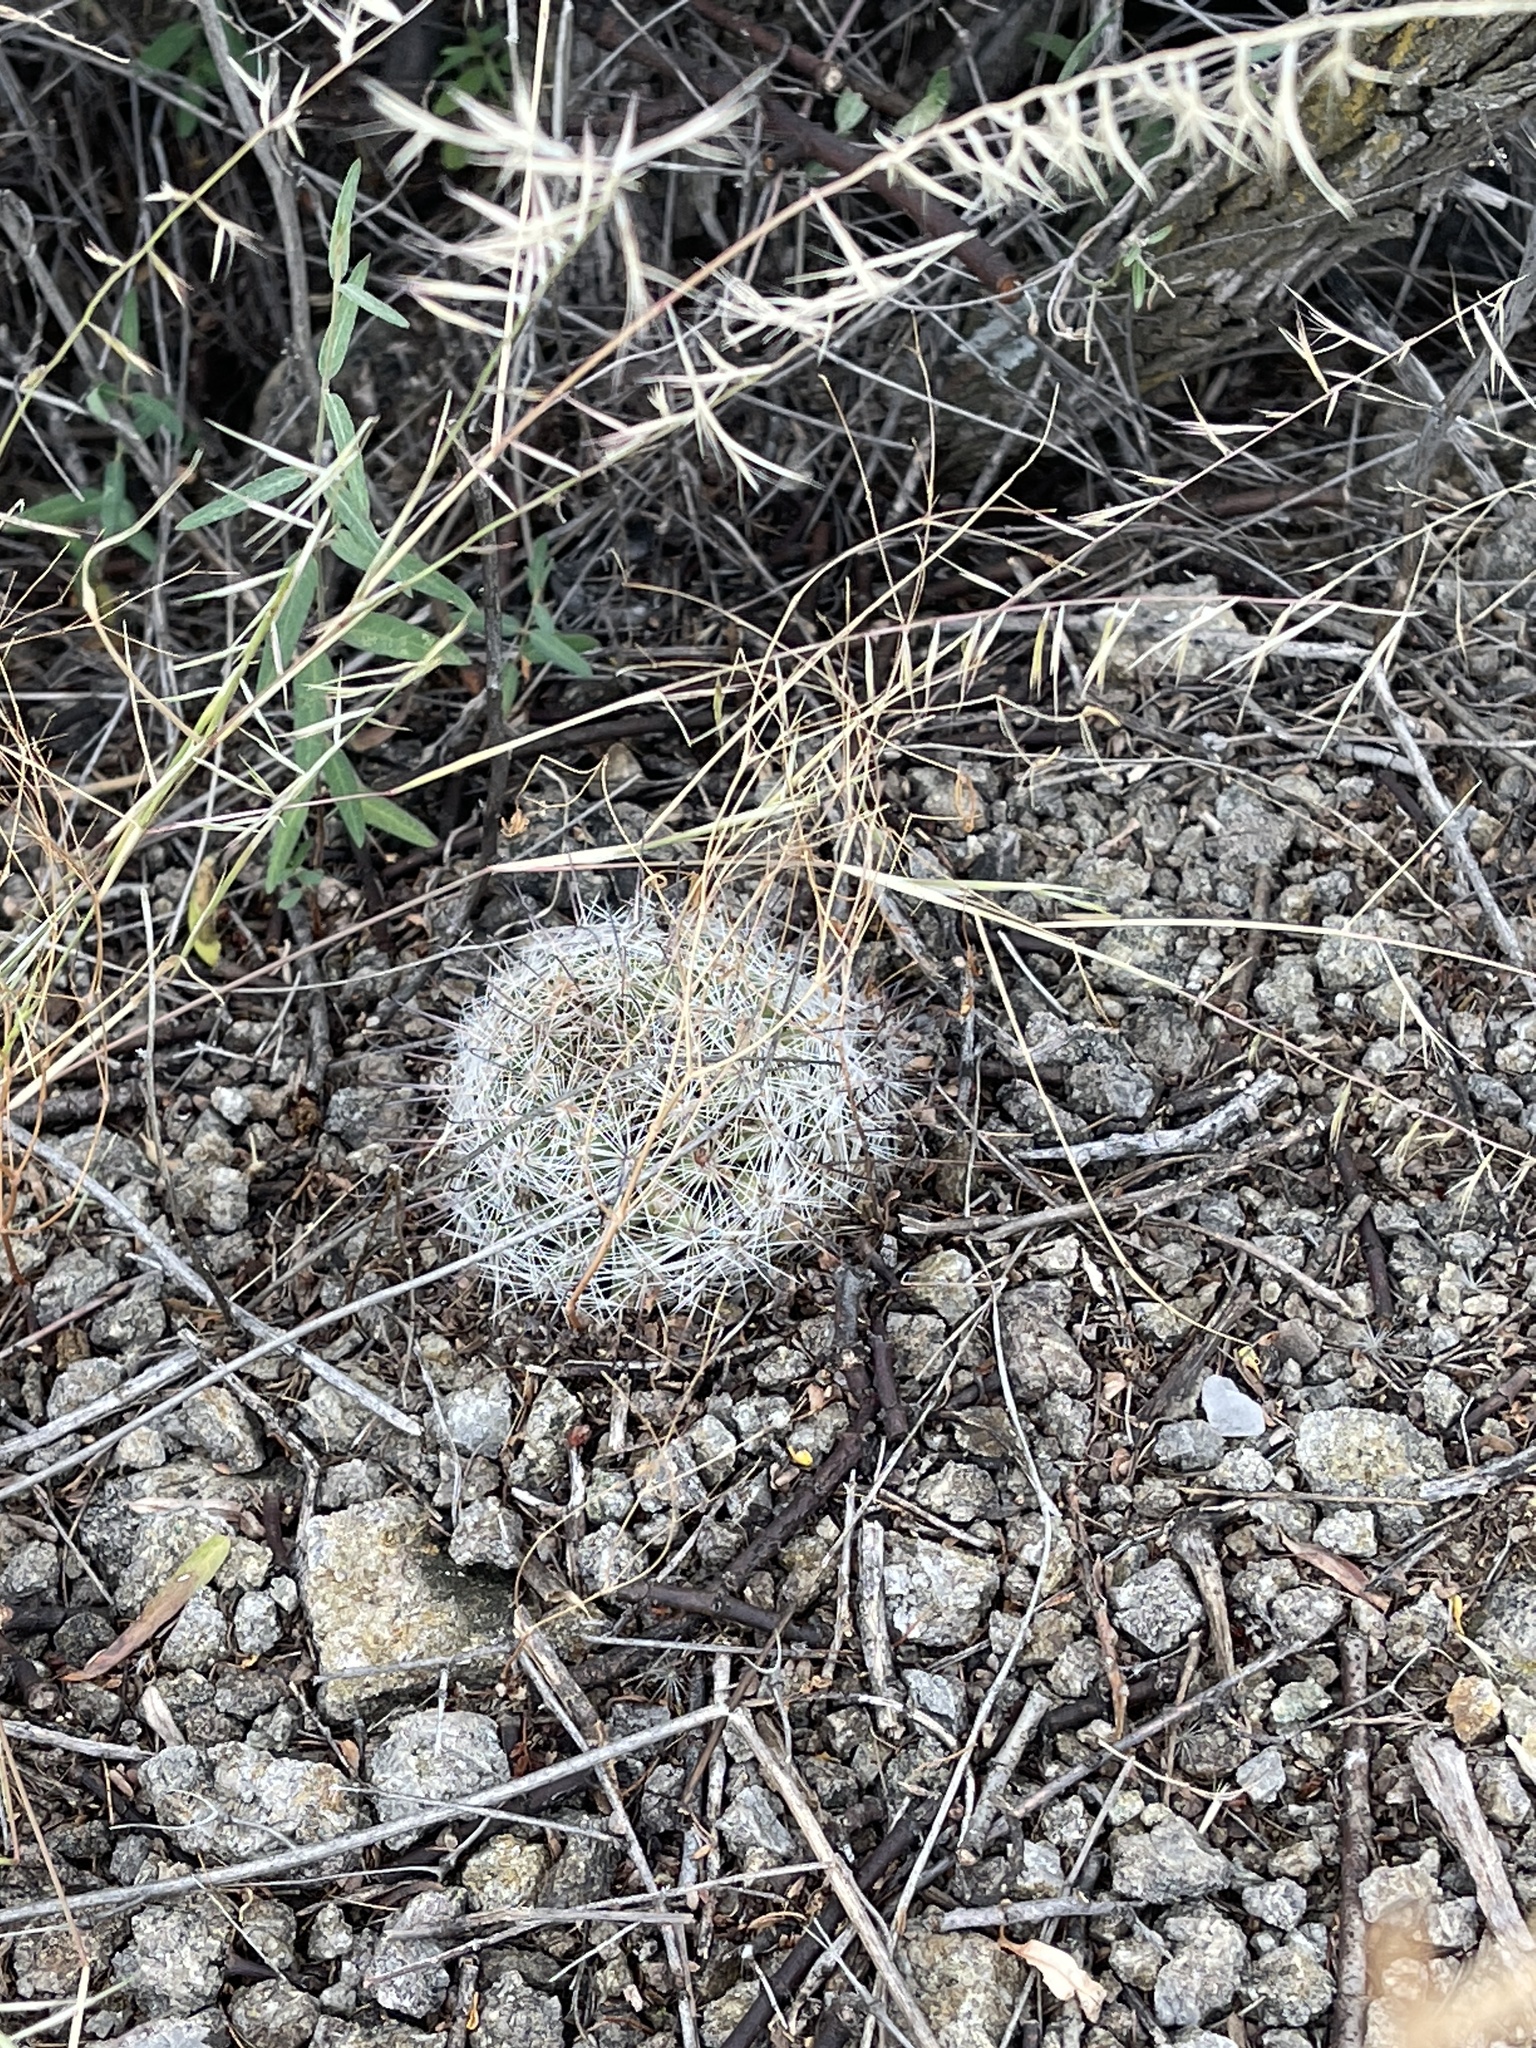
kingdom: Plantae
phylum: Tracheophyta
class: Magnoliopsida
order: Caryophyllales
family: Cactaceae
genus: Cochemiea
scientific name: Cochemiea grahamii
